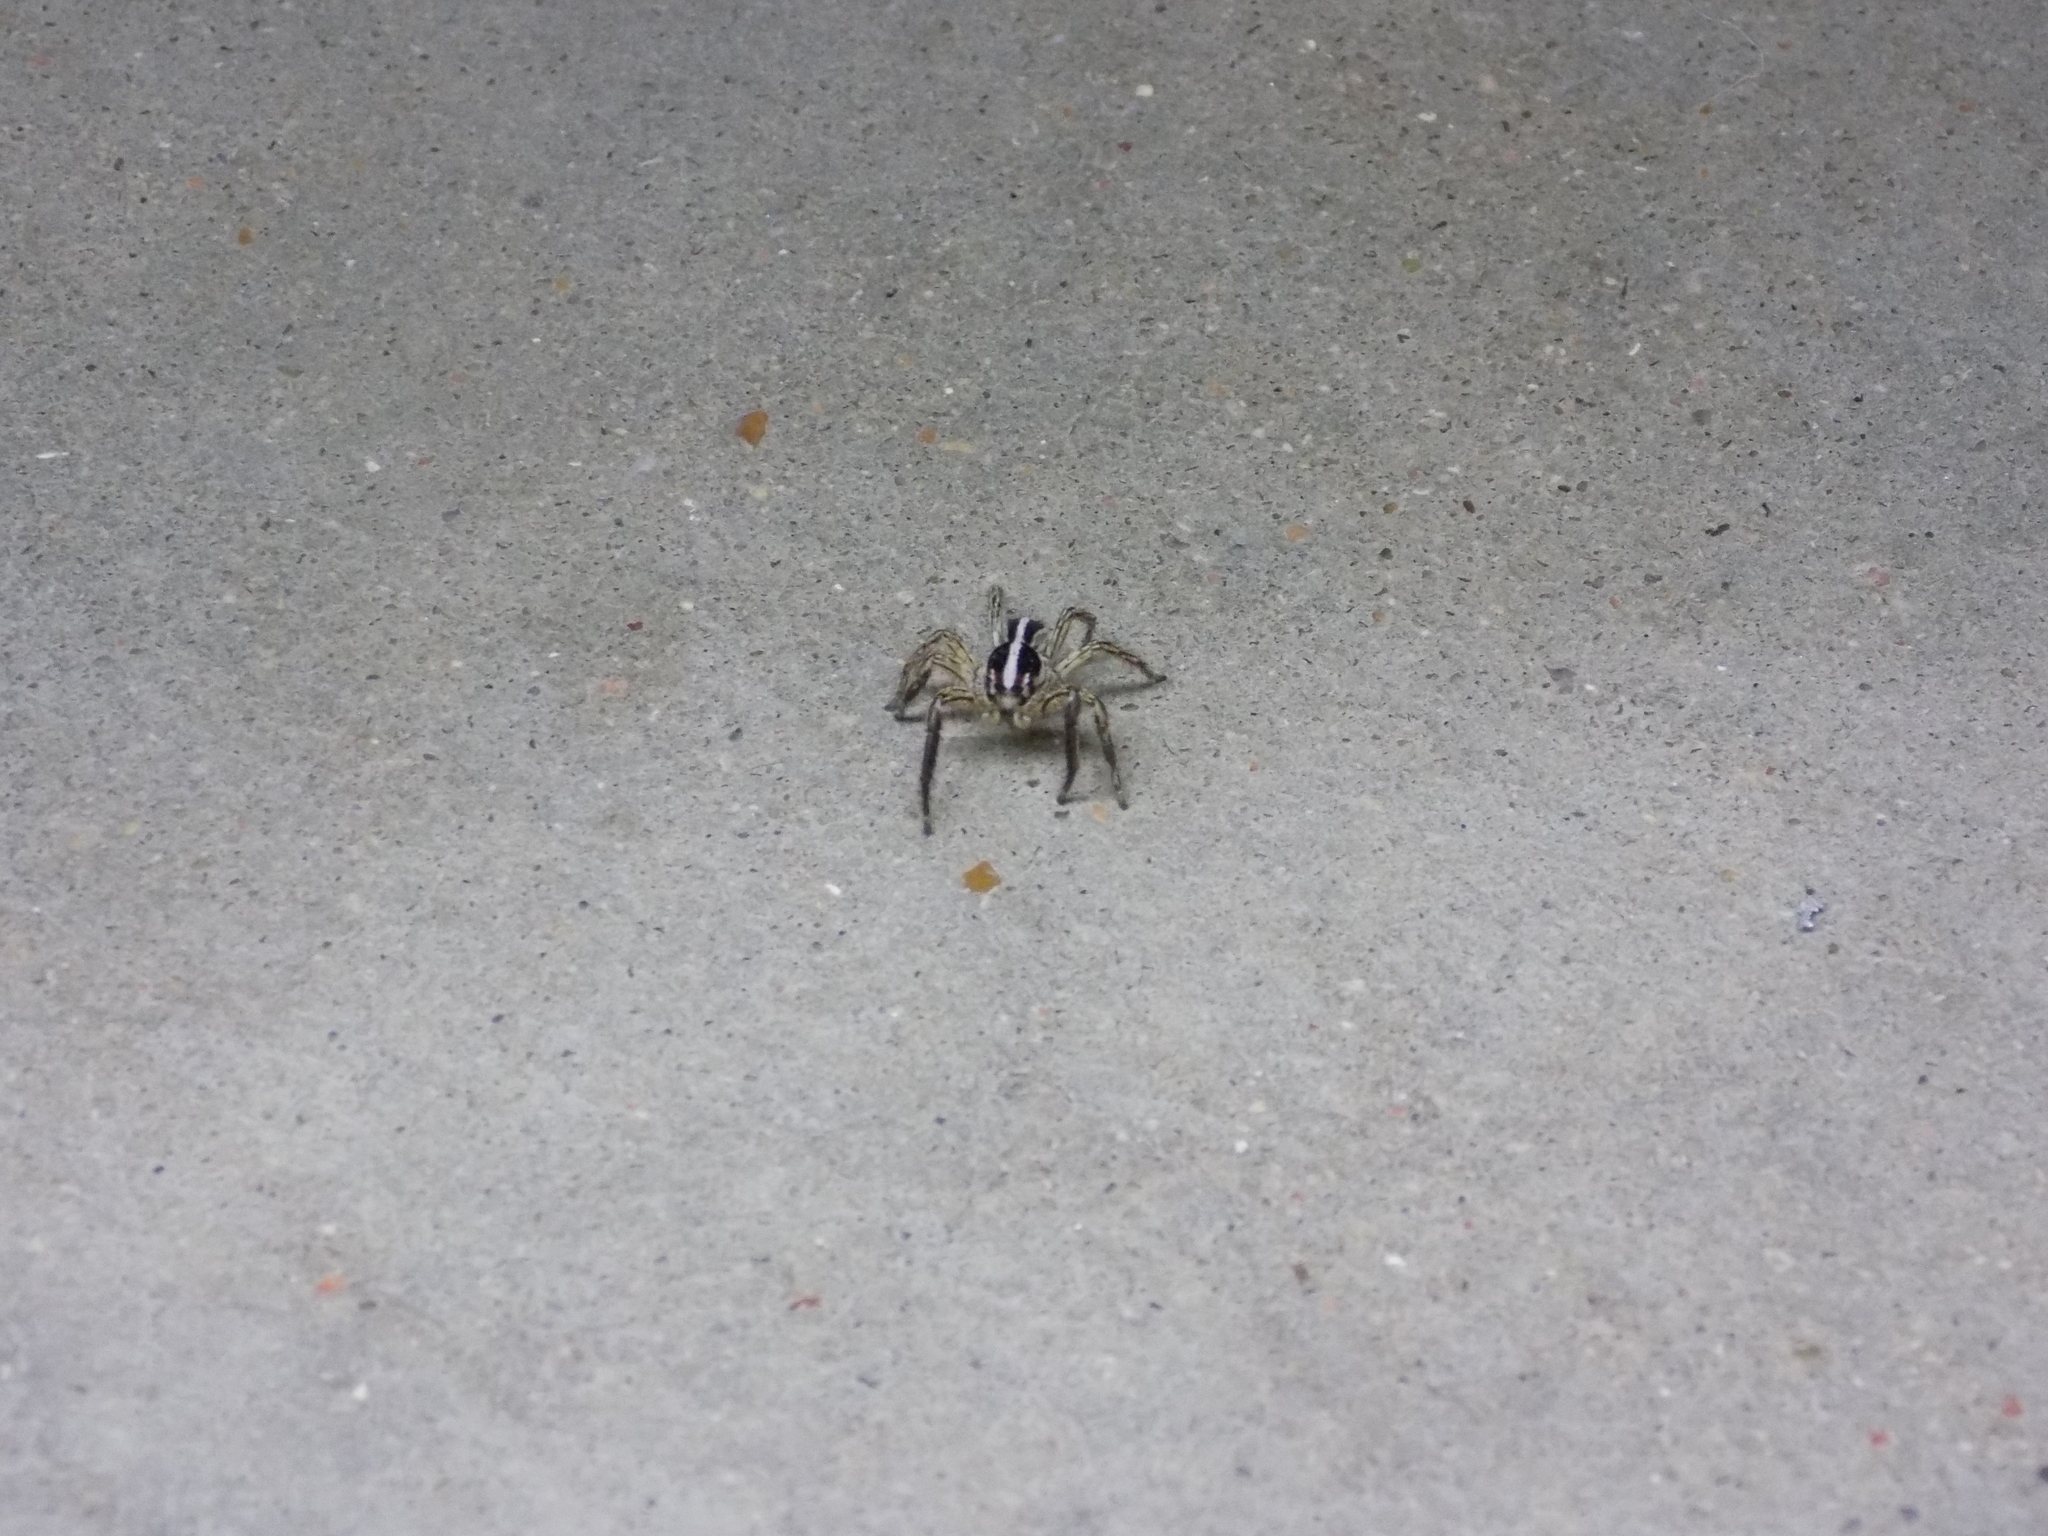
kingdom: Animalia
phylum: Arthropoda
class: Arachnida
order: Araneae
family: Salticidae
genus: Plexippus
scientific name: Plexippus paykulli
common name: Pantropical jumper
